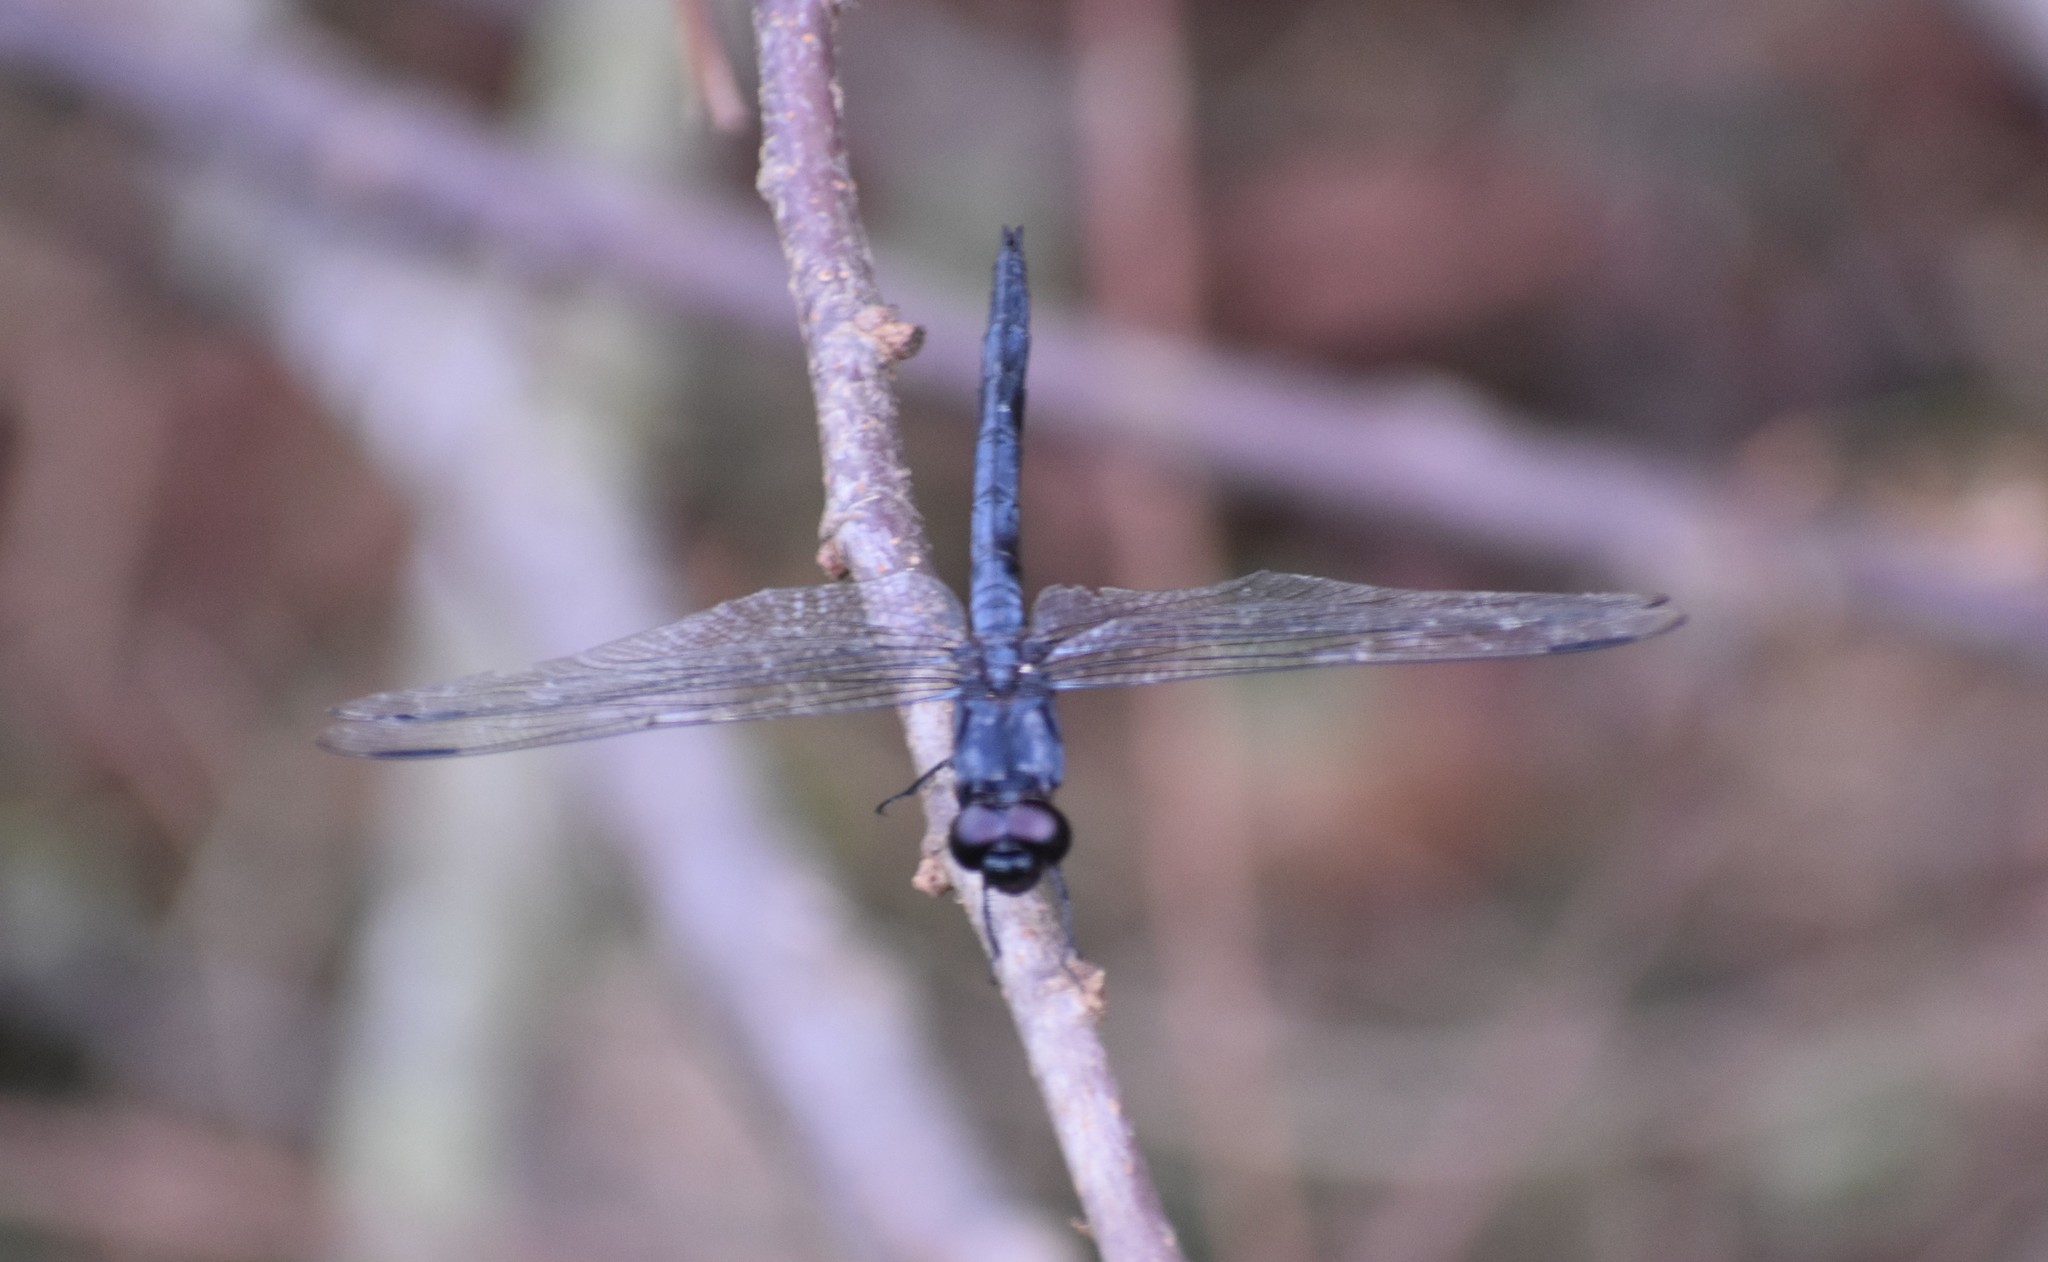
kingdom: Animalia
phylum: Arthropoda
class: Insecta
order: Odonata
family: Libellulidae
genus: Libellula
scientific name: Libellula incesta
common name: Slaty skimmer
